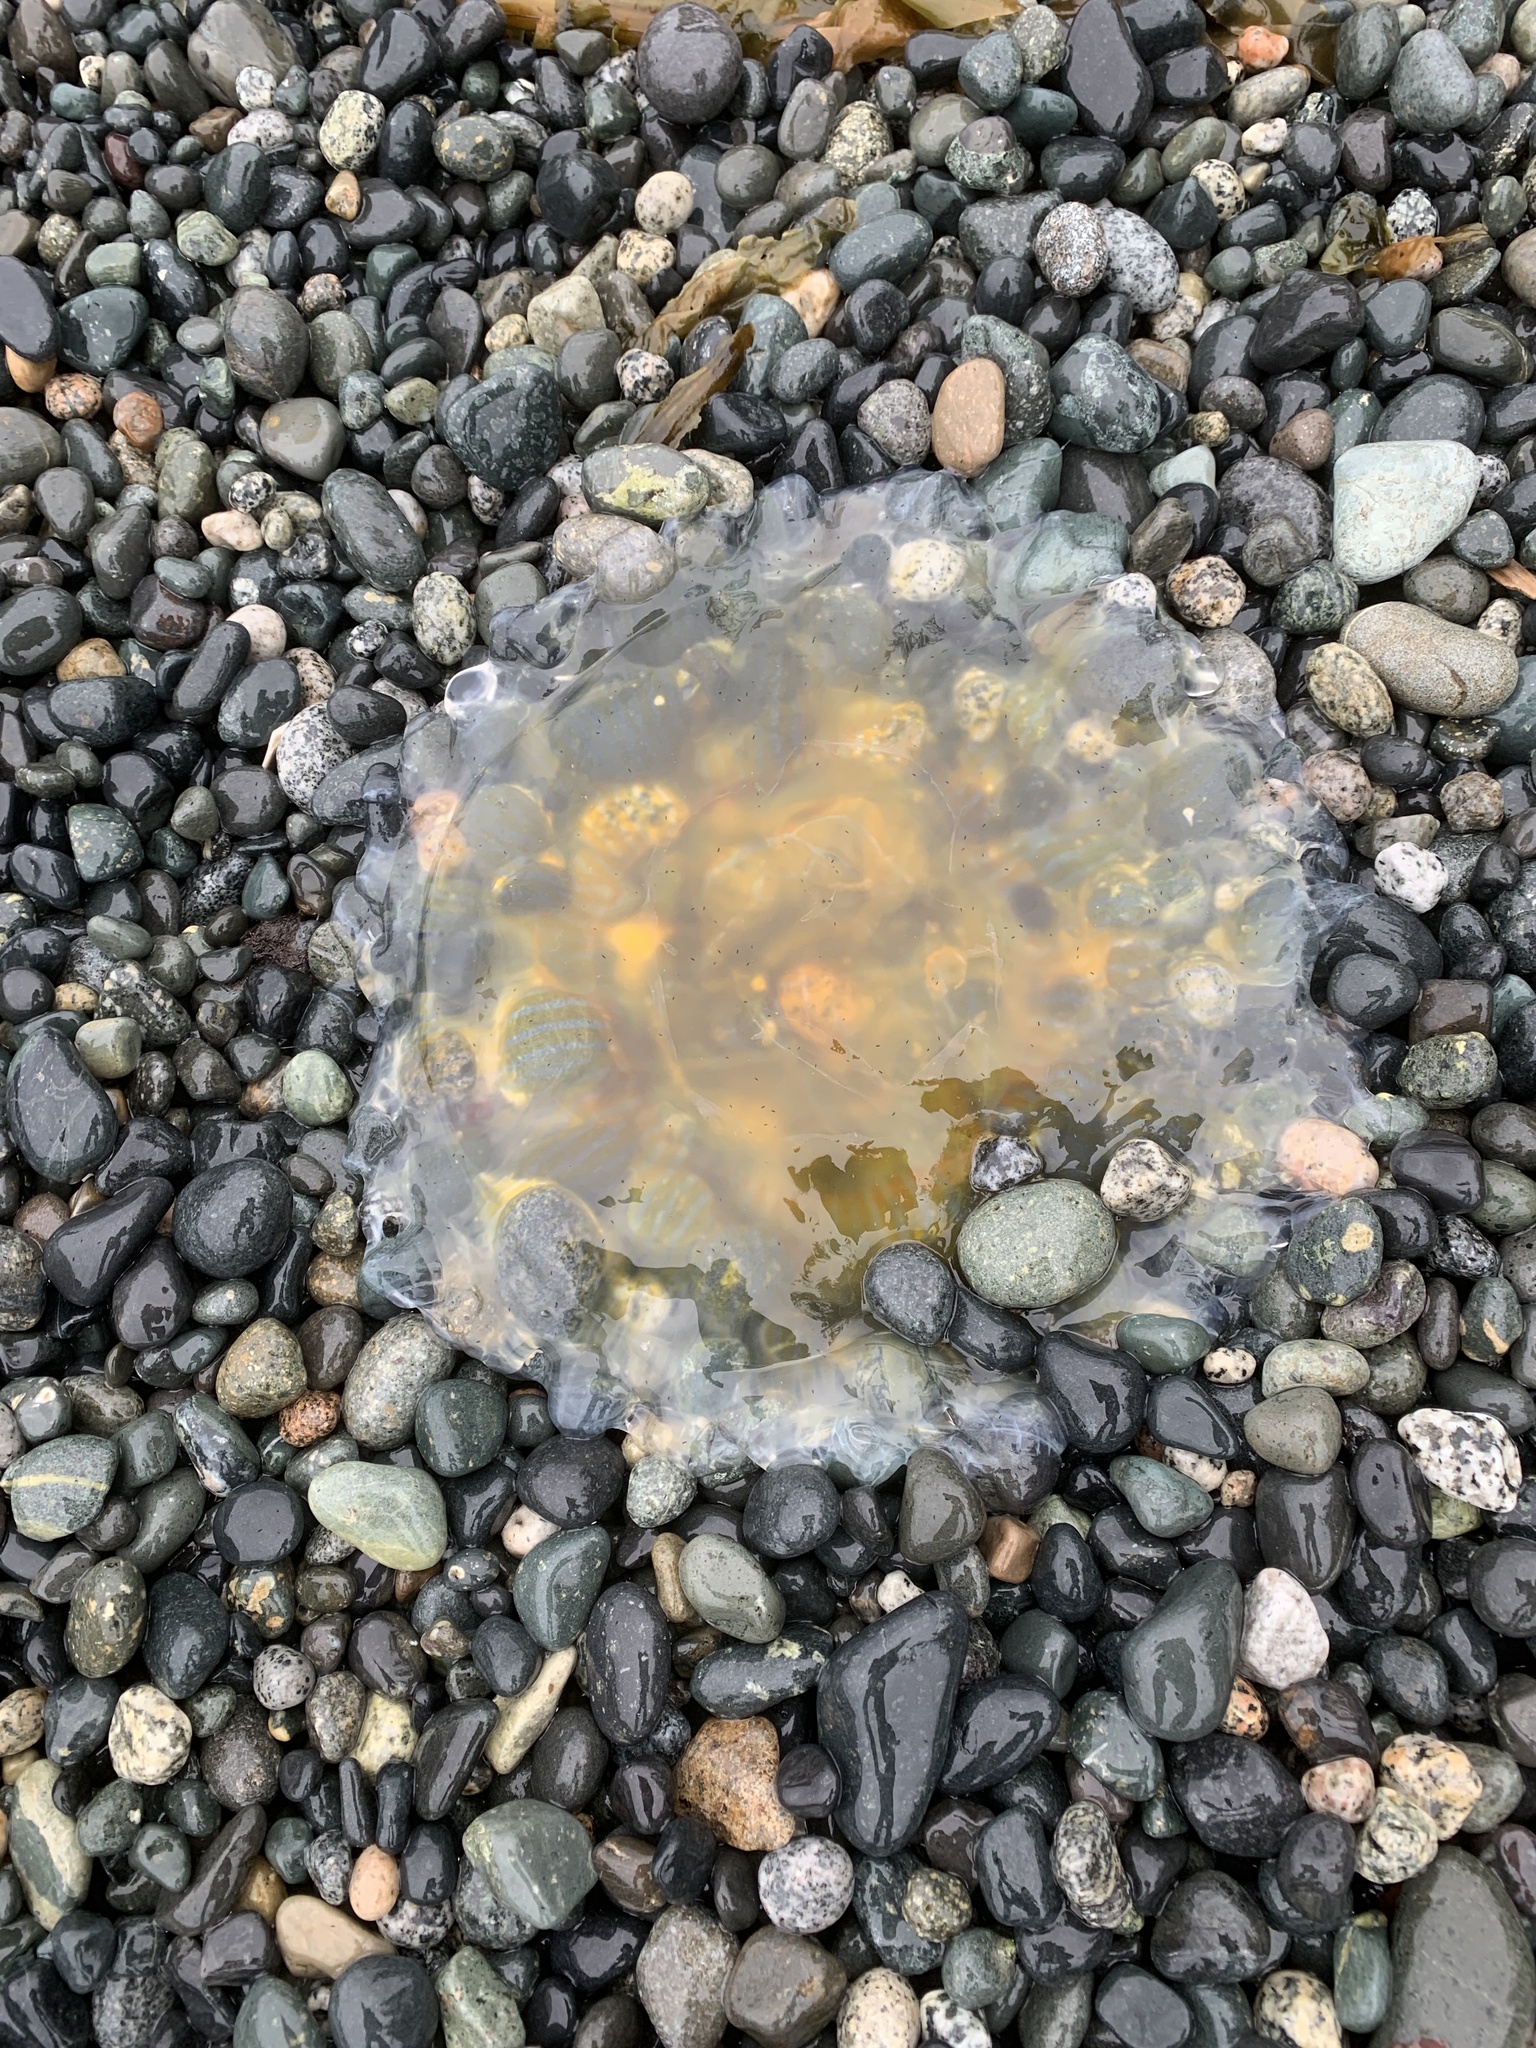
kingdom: Animalia
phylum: Cnidaria
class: Scyphozoa
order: Semaeostomeae
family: Phacellophoridae
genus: Phacellophora
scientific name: Phacellophora camtschatica
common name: Fried-egg jellyfish
